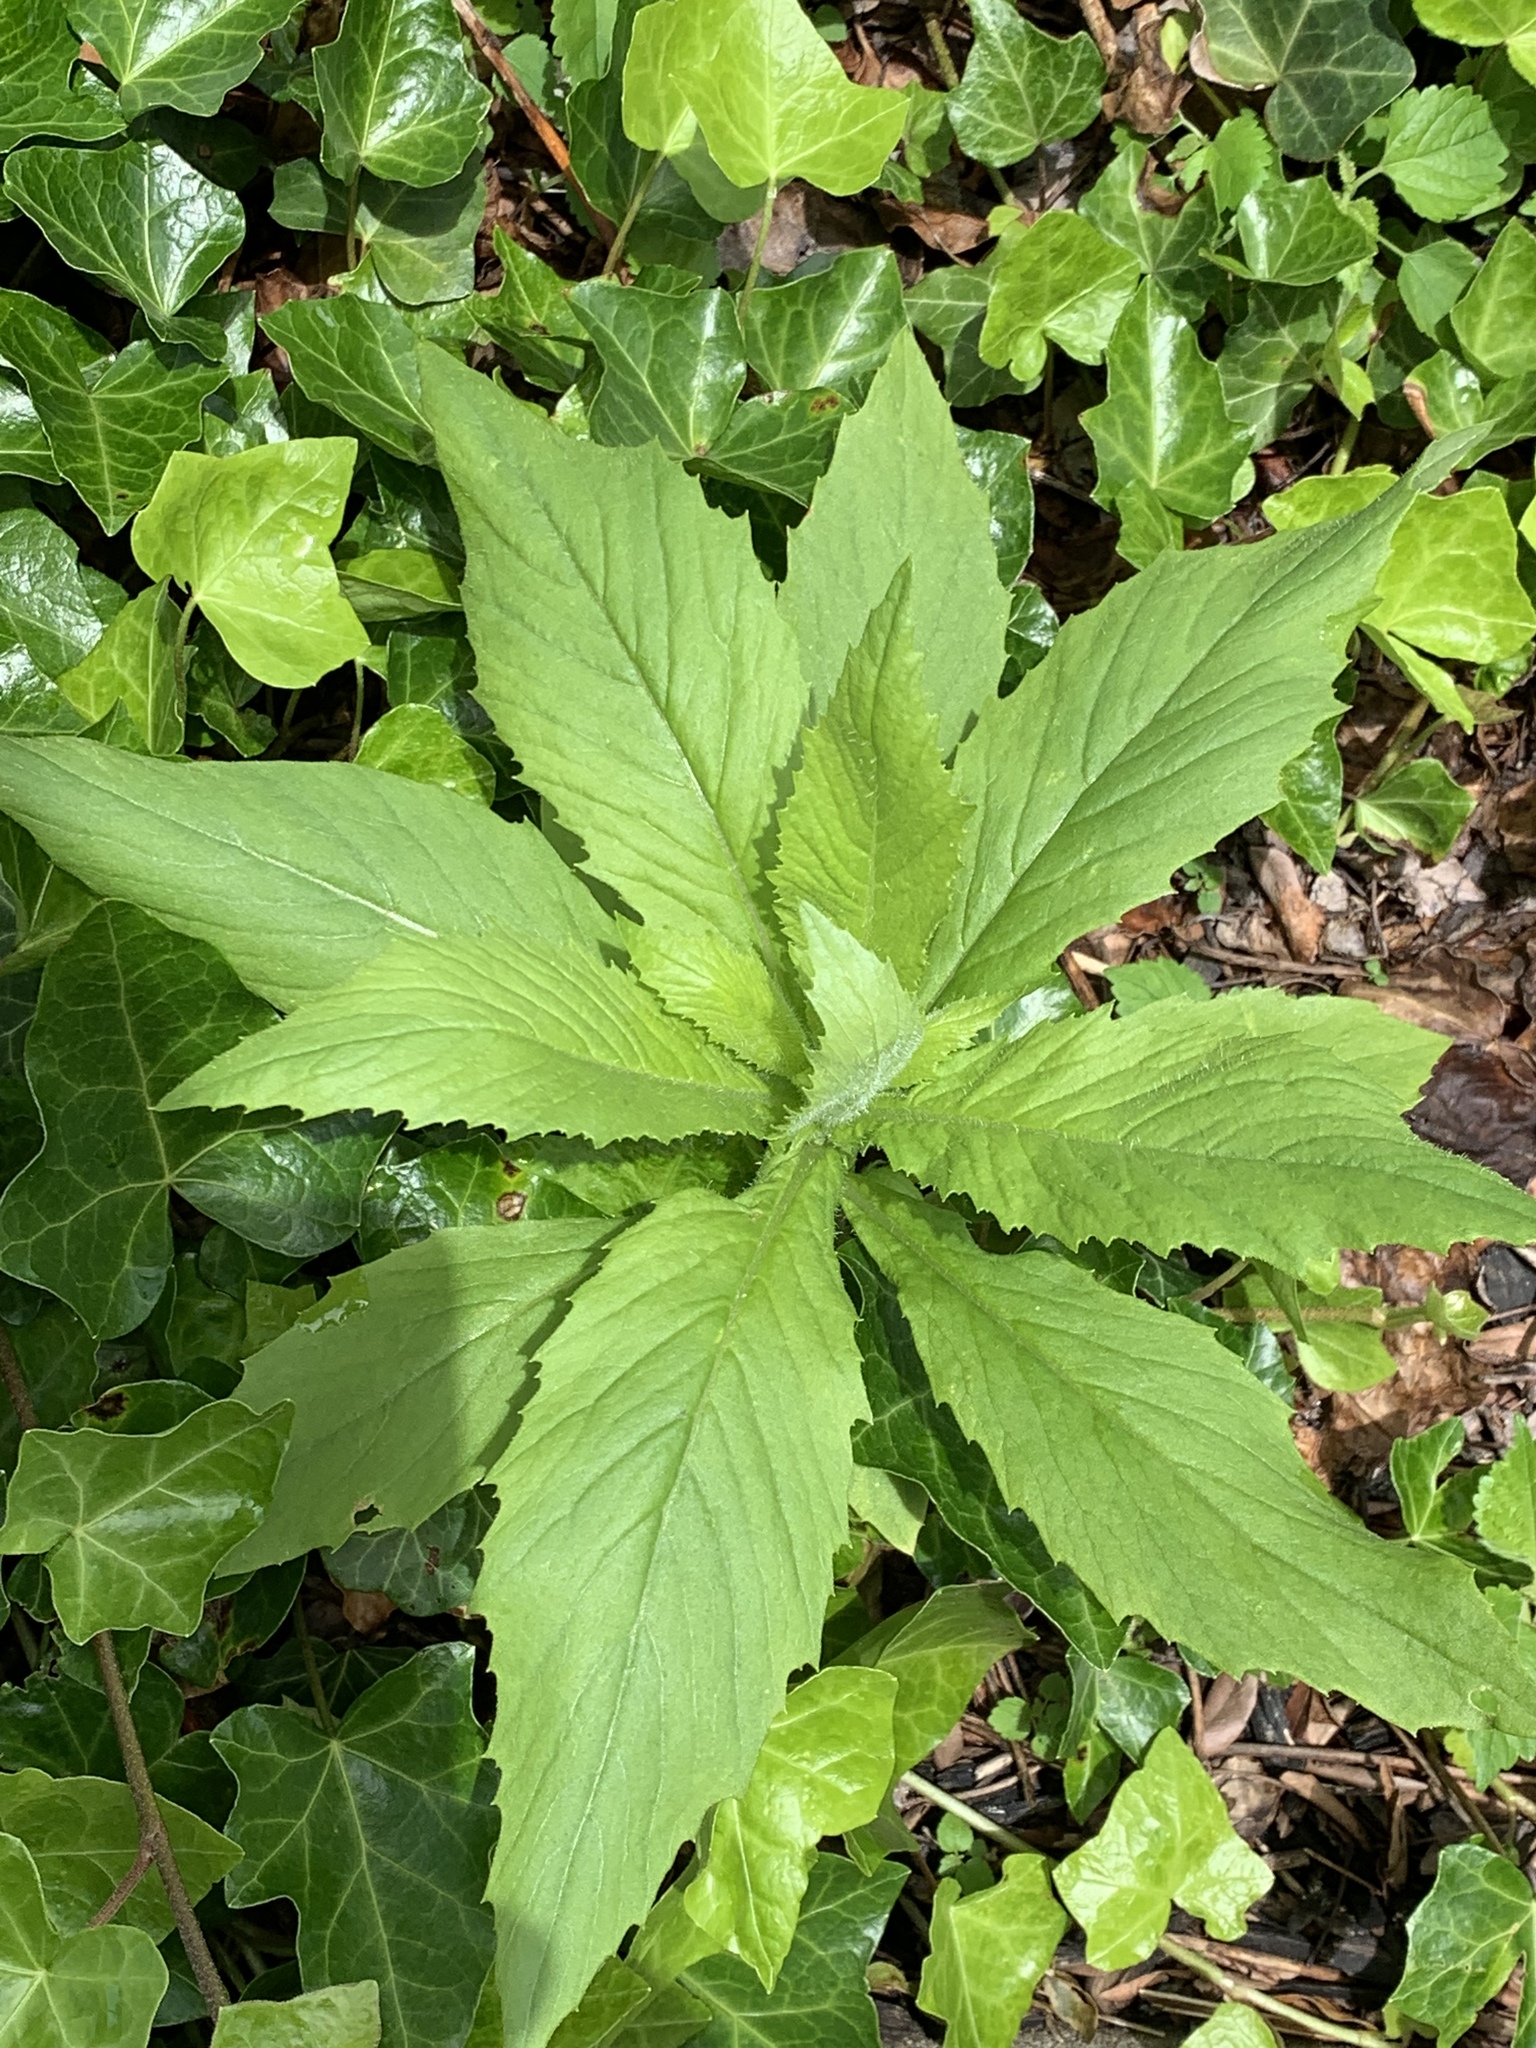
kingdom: Plantae
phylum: Tracheophyta
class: Magnoliopsida
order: Asterales
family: Asteraceae
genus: Erechtites
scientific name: Erechtites hieraciifolius
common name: American burnweed
